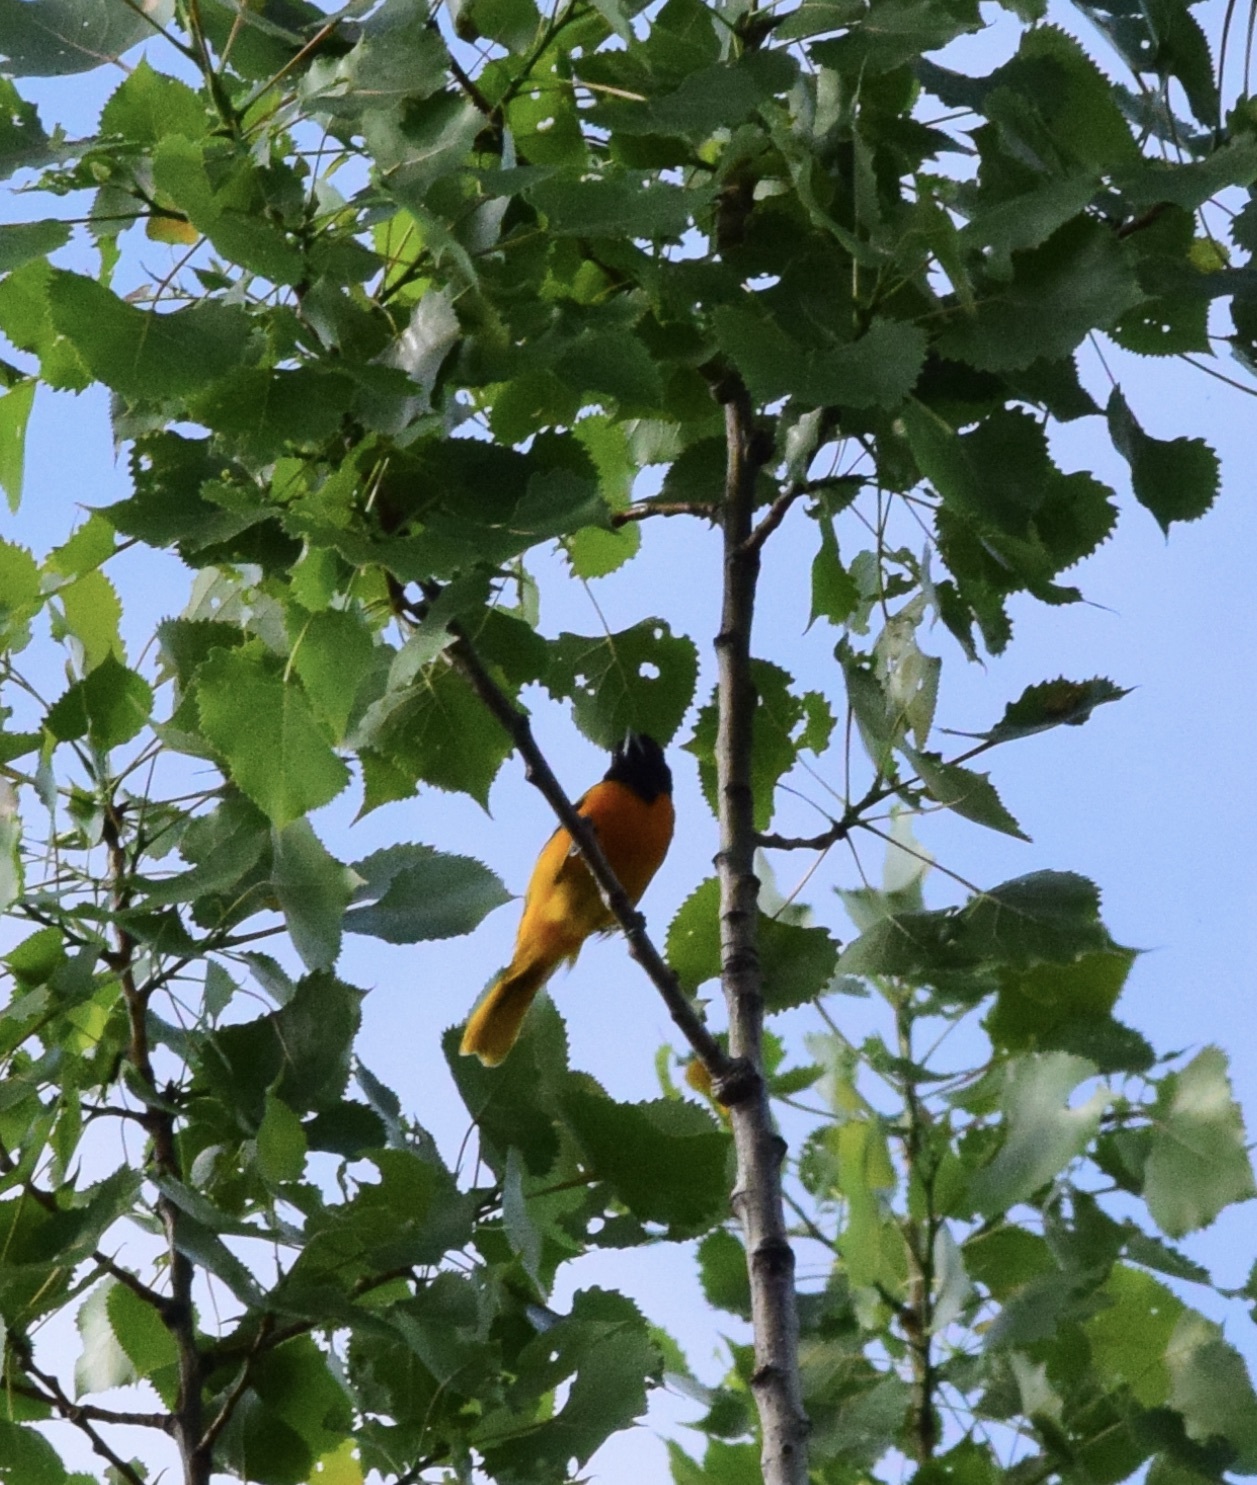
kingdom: Animalia
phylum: Chordata
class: Aves
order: Passeriformes
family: Icteridae
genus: Icterus
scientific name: Icterus galbula
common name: Baltimore oriole
